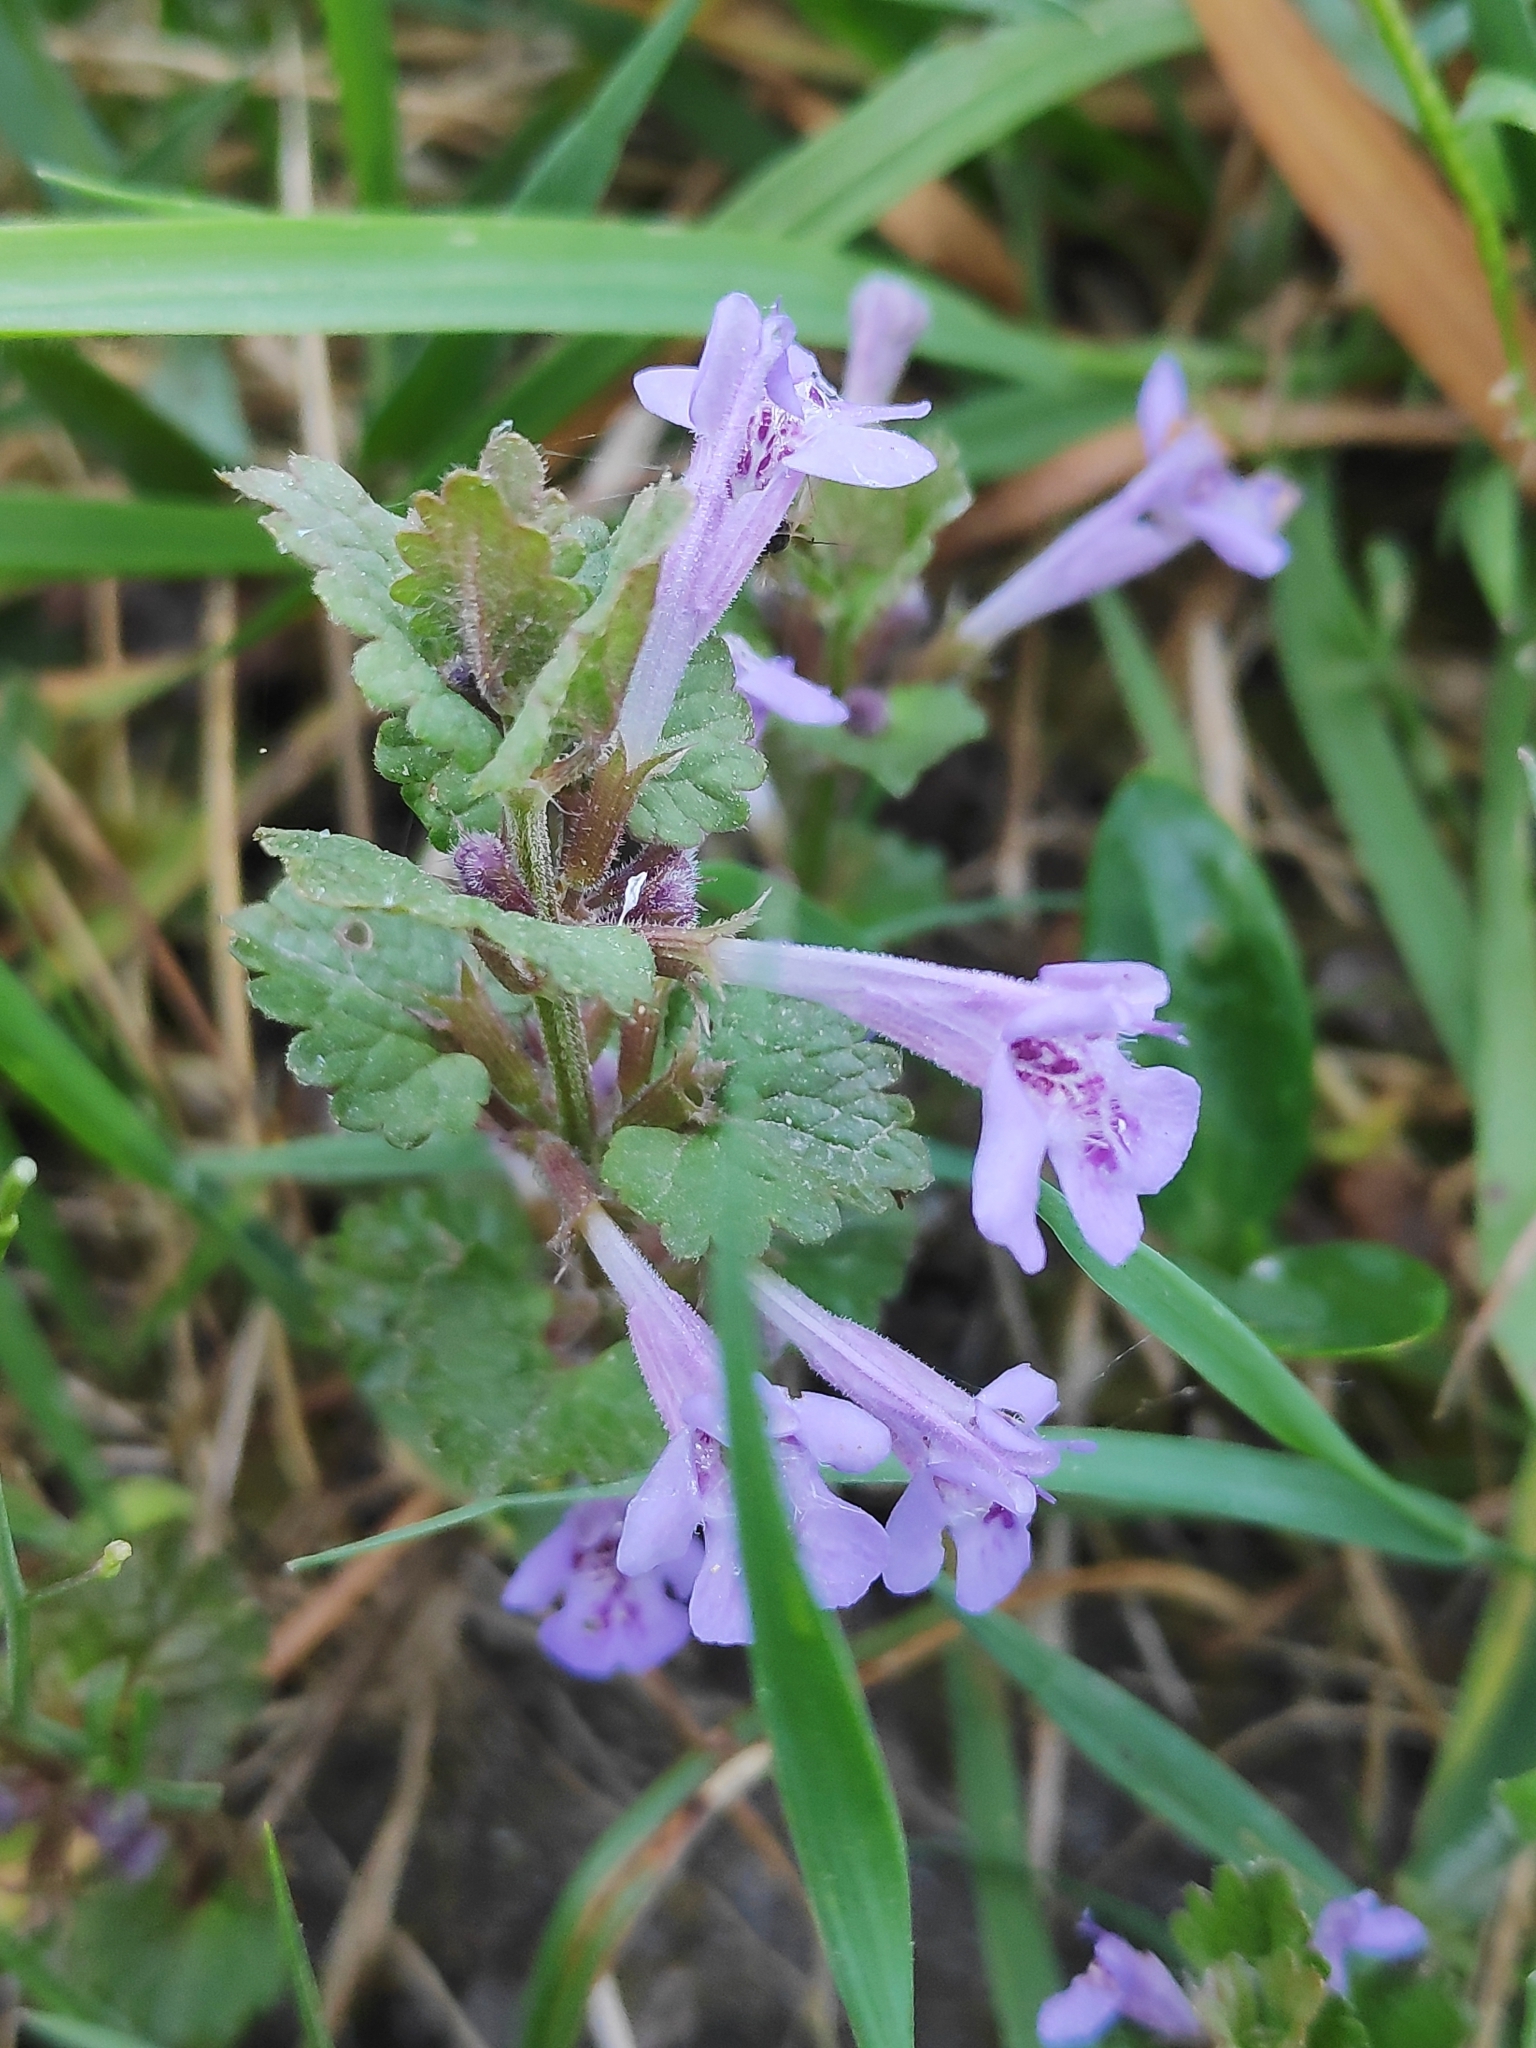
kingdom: Plantae
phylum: Tracheophyta
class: Magnoliopsida
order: Lamiales
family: Lamiaceae
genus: Glechoma
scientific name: Glechoma hederacea
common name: Ground ivy
